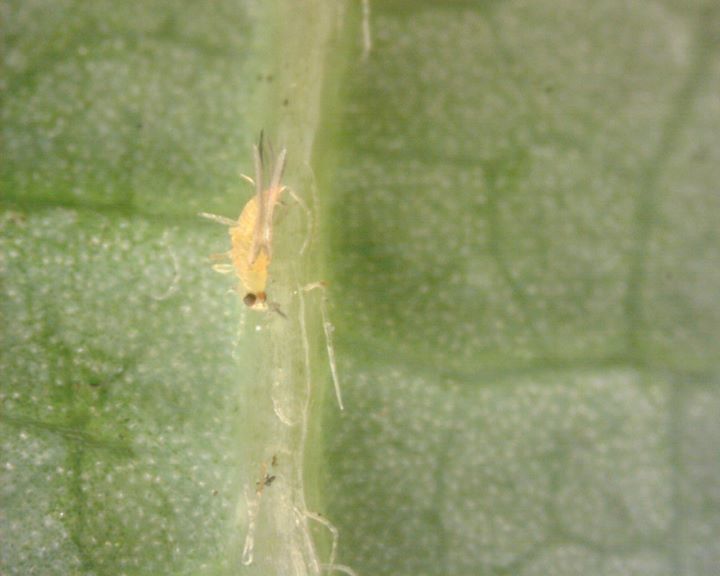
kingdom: Animalia
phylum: Arthropoda
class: Insecta
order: Thysanoptera
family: Thripidae
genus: Scirtothrips
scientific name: Scirtothrips dorsalis
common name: Thrips
